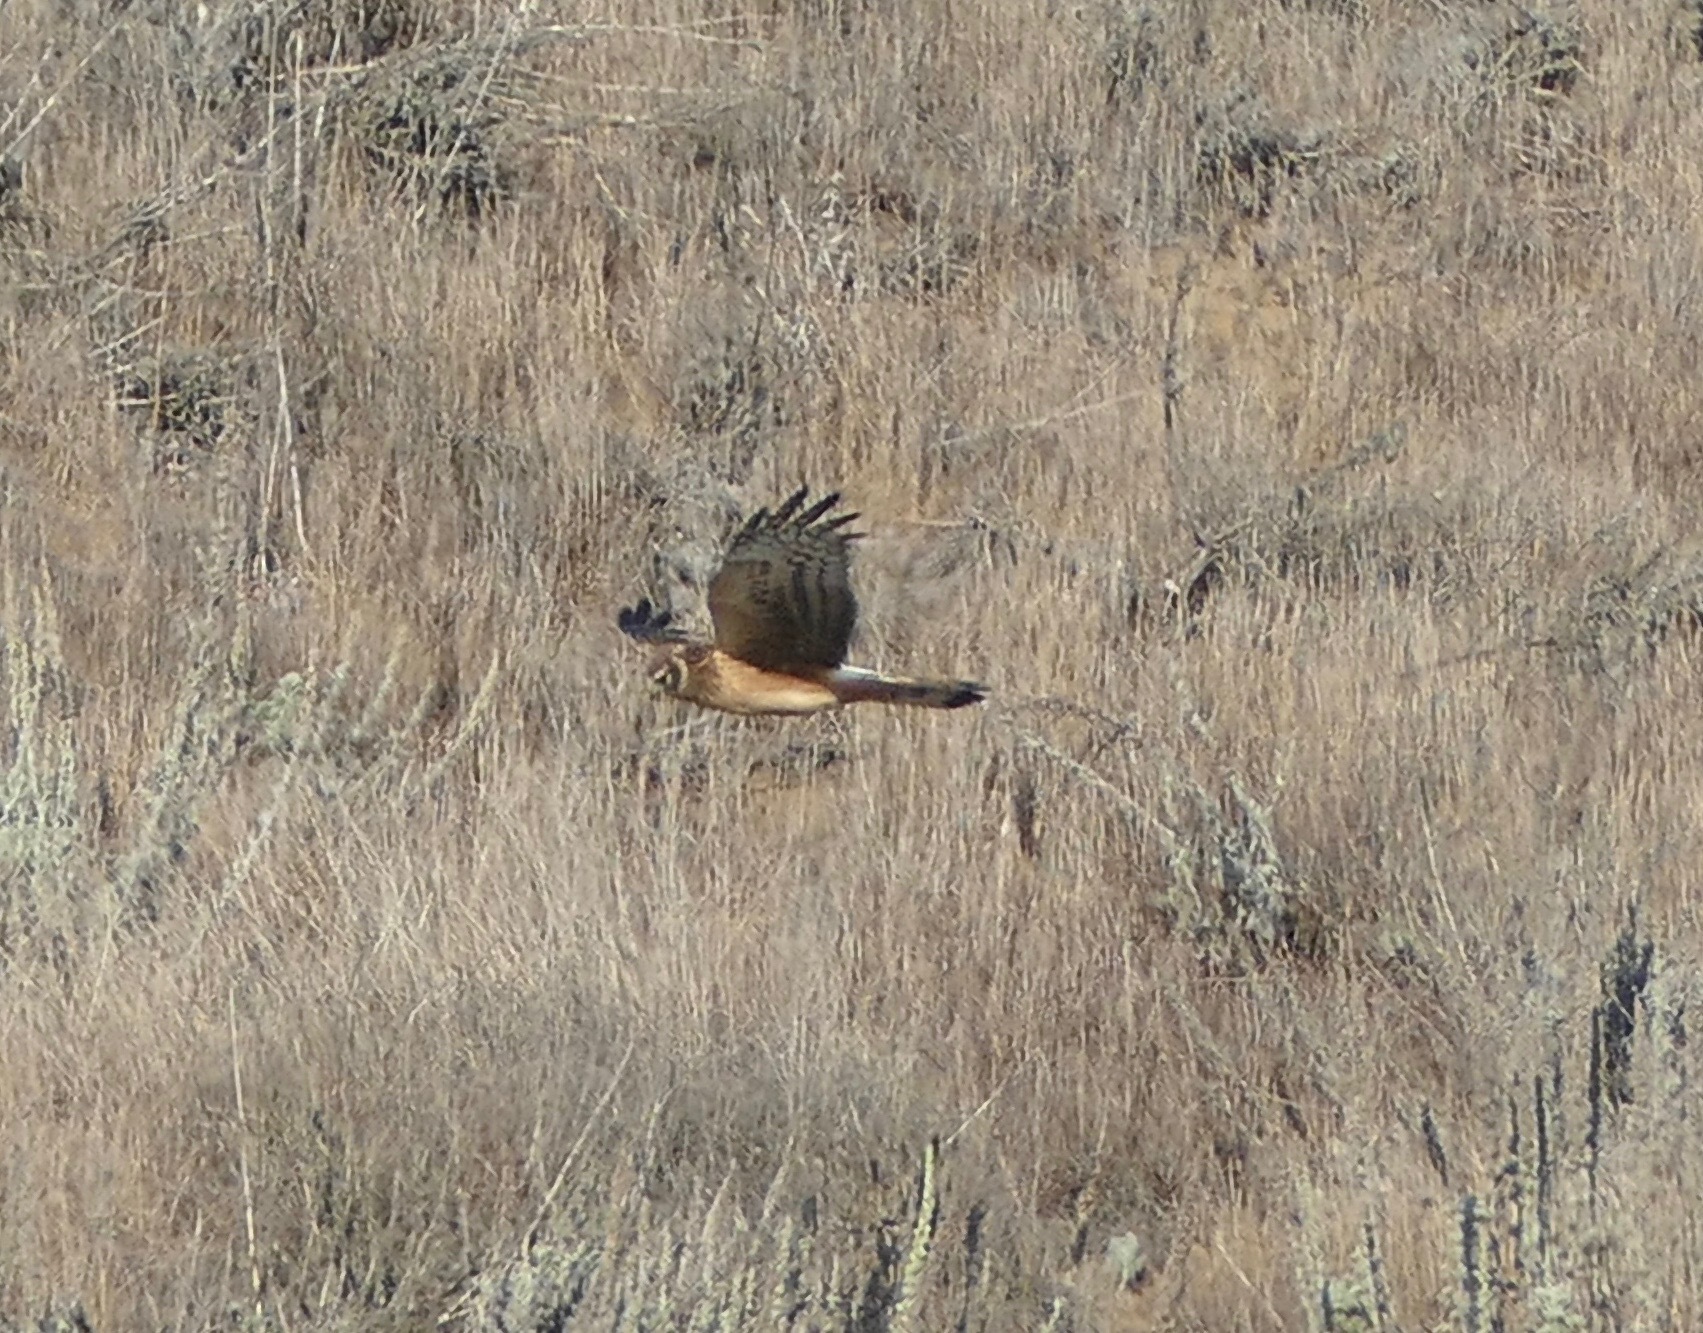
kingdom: Animalia
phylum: Chordata
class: Aves
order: Accipitriformes
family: Accipitridae
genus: Circus
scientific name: Circus cyaneus
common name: Hen harrier
